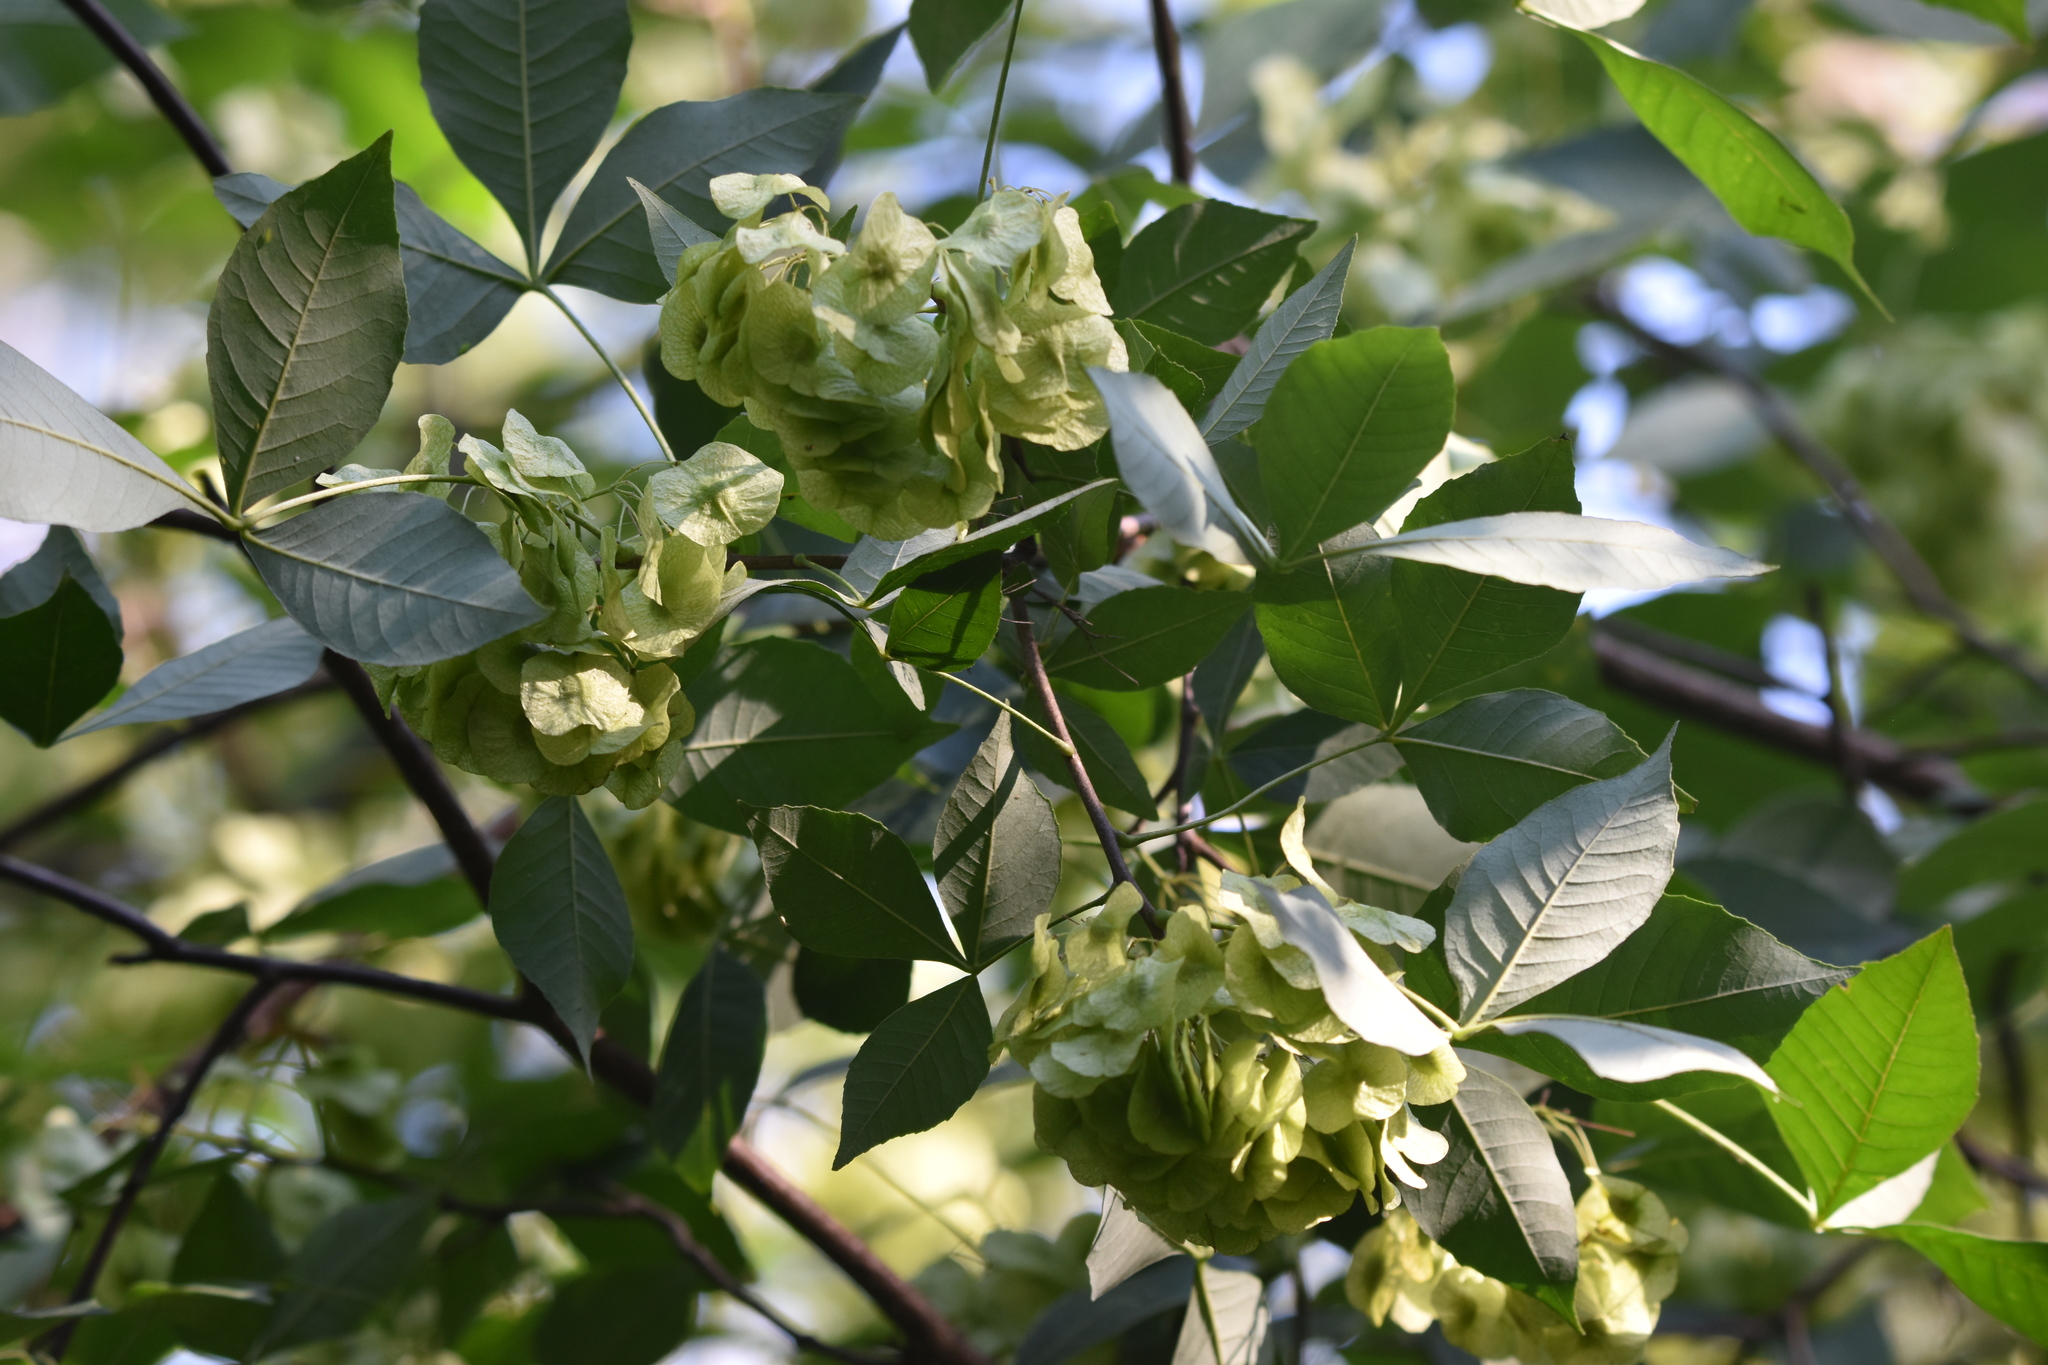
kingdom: Plantae
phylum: Tracheophyta
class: Magnoliopsida
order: Sapindales
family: Rutaceae
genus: Ptelea
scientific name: Ptelea trifoliata
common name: Common hop-tree
